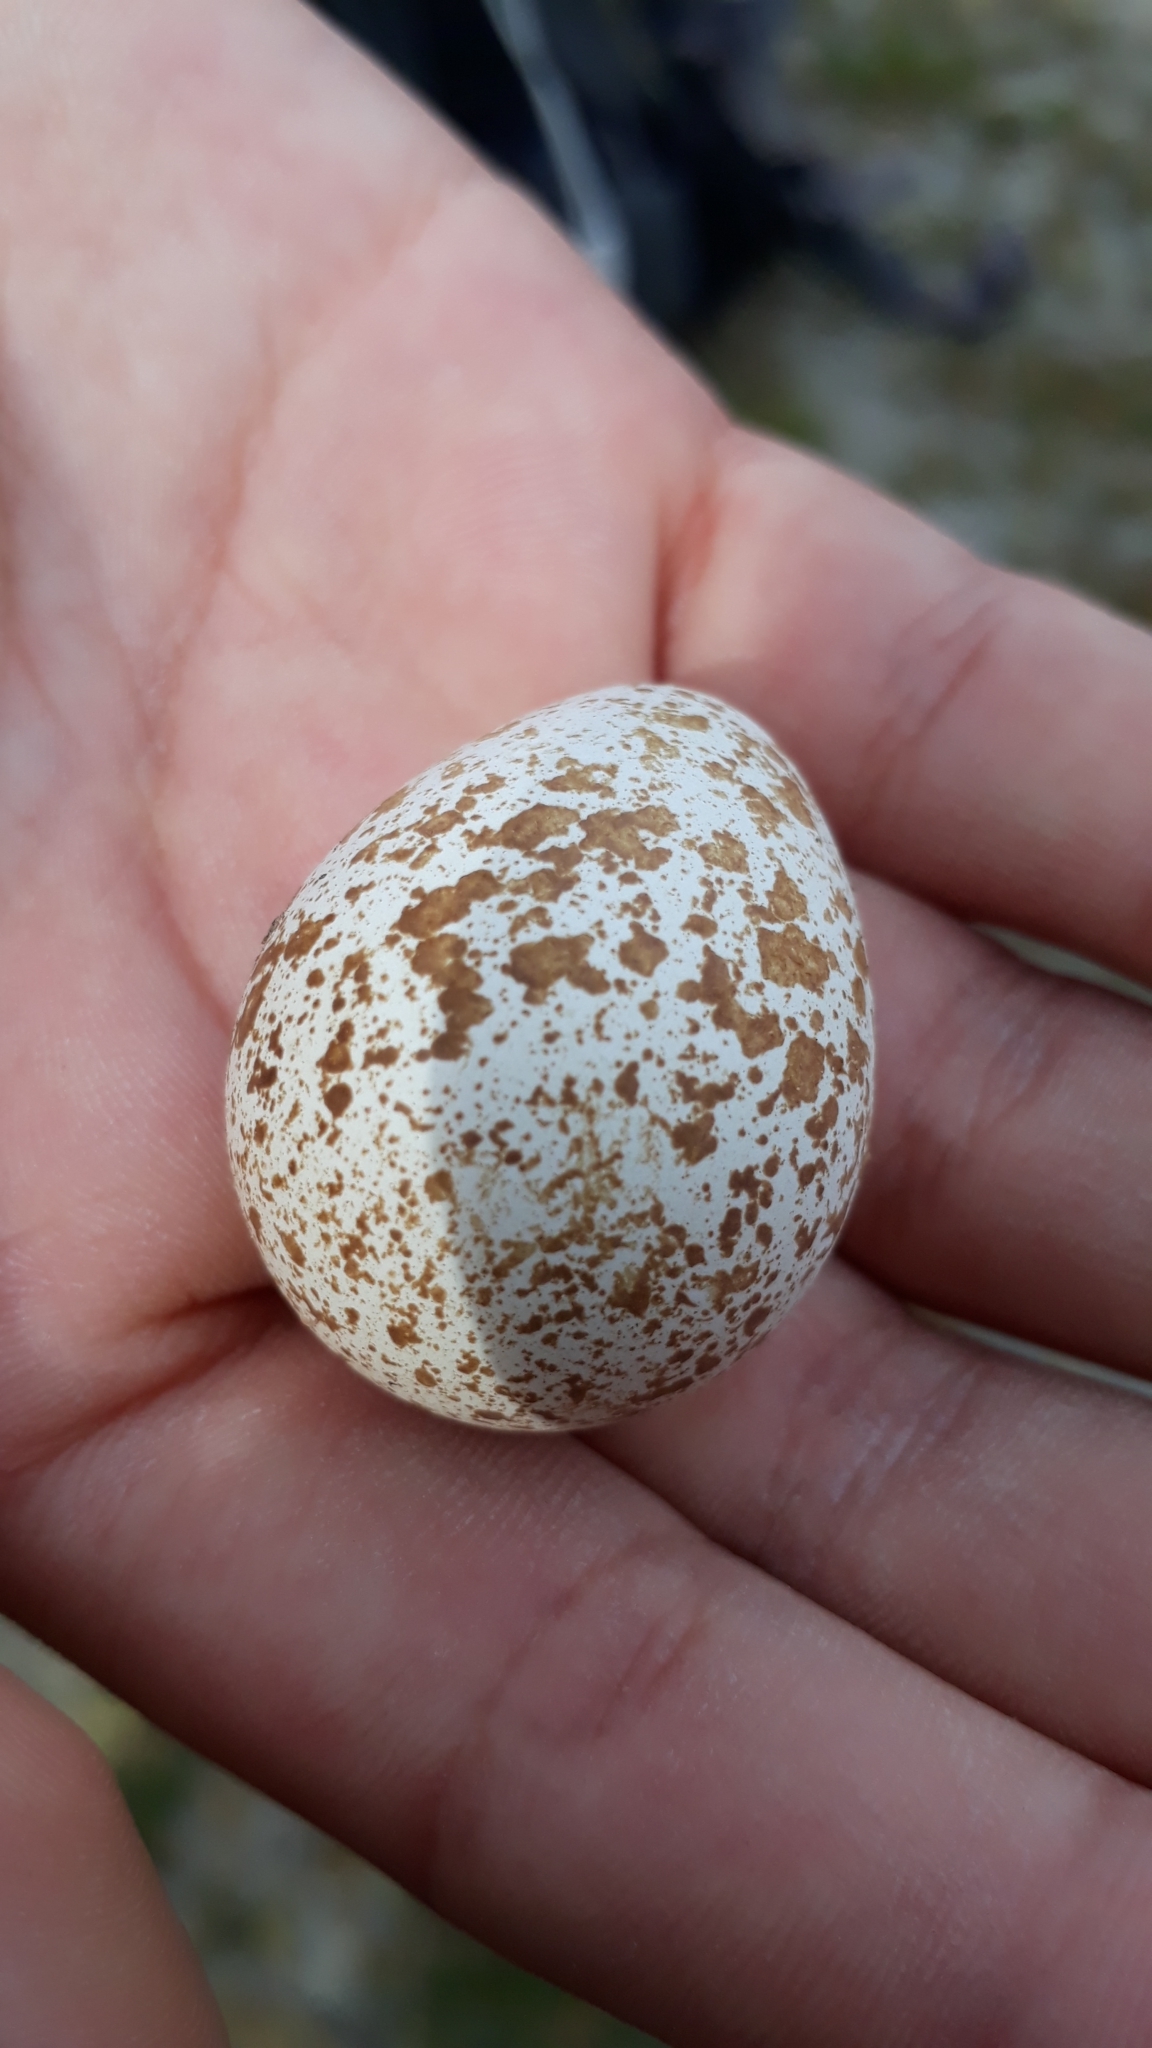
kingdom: Animalia
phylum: Chordata
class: Aves
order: Galliformes
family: Odontophoridae
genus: Callipepla
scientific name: Callipepla californica
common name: California quail
